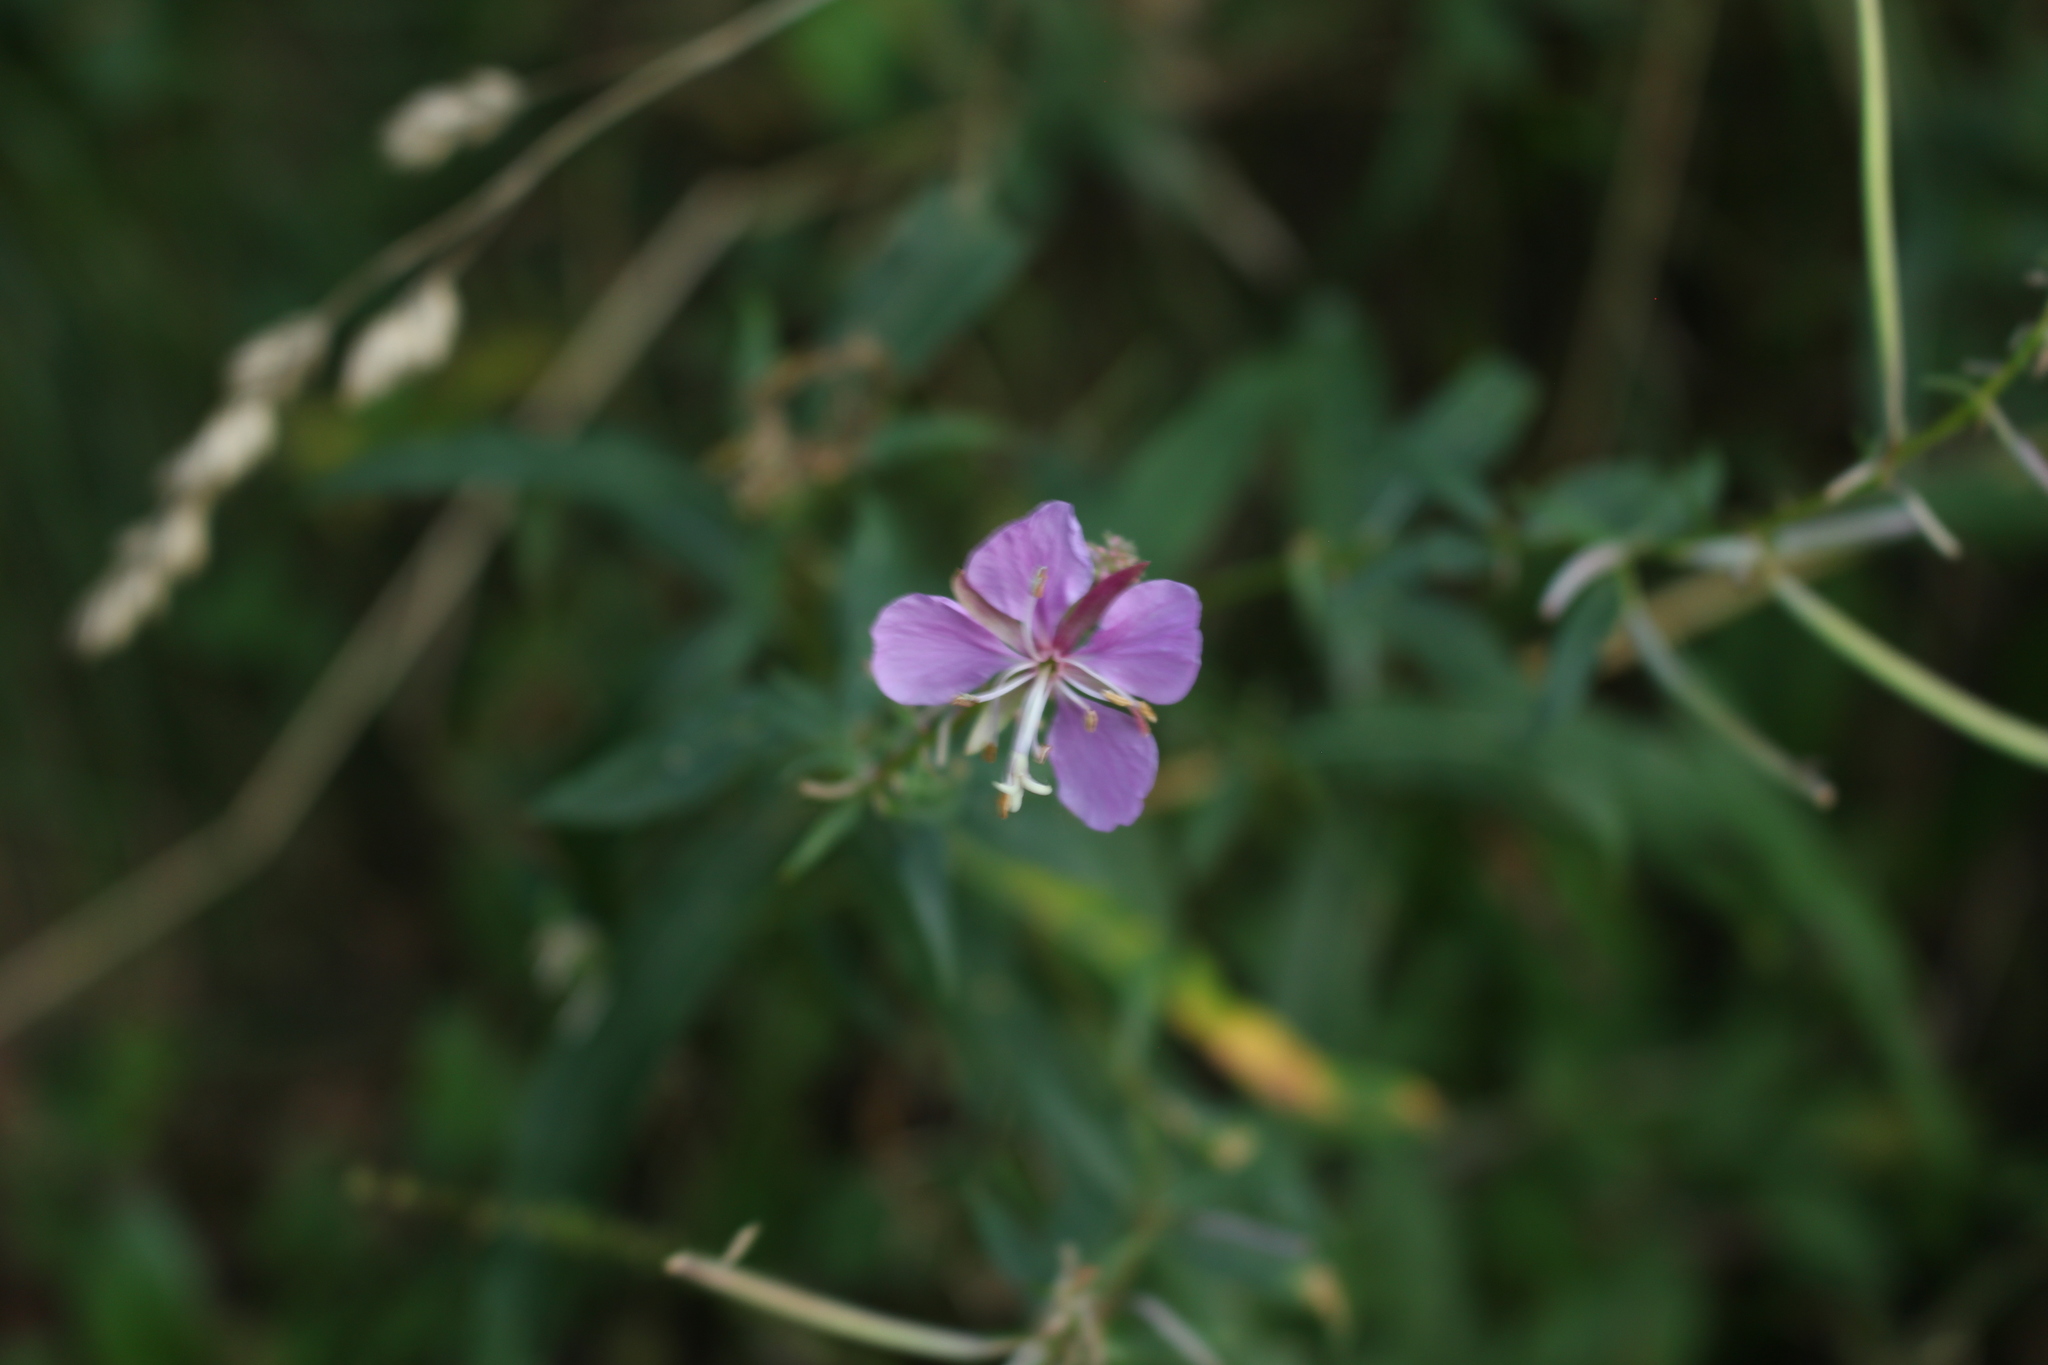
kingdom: Plantae
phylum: Tracheophyta
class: Magnoliopsida
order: Myrtales
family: Onagraceae
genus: Chamaenerion
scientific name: Chamaenerion angustifolium
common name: Fireweed
